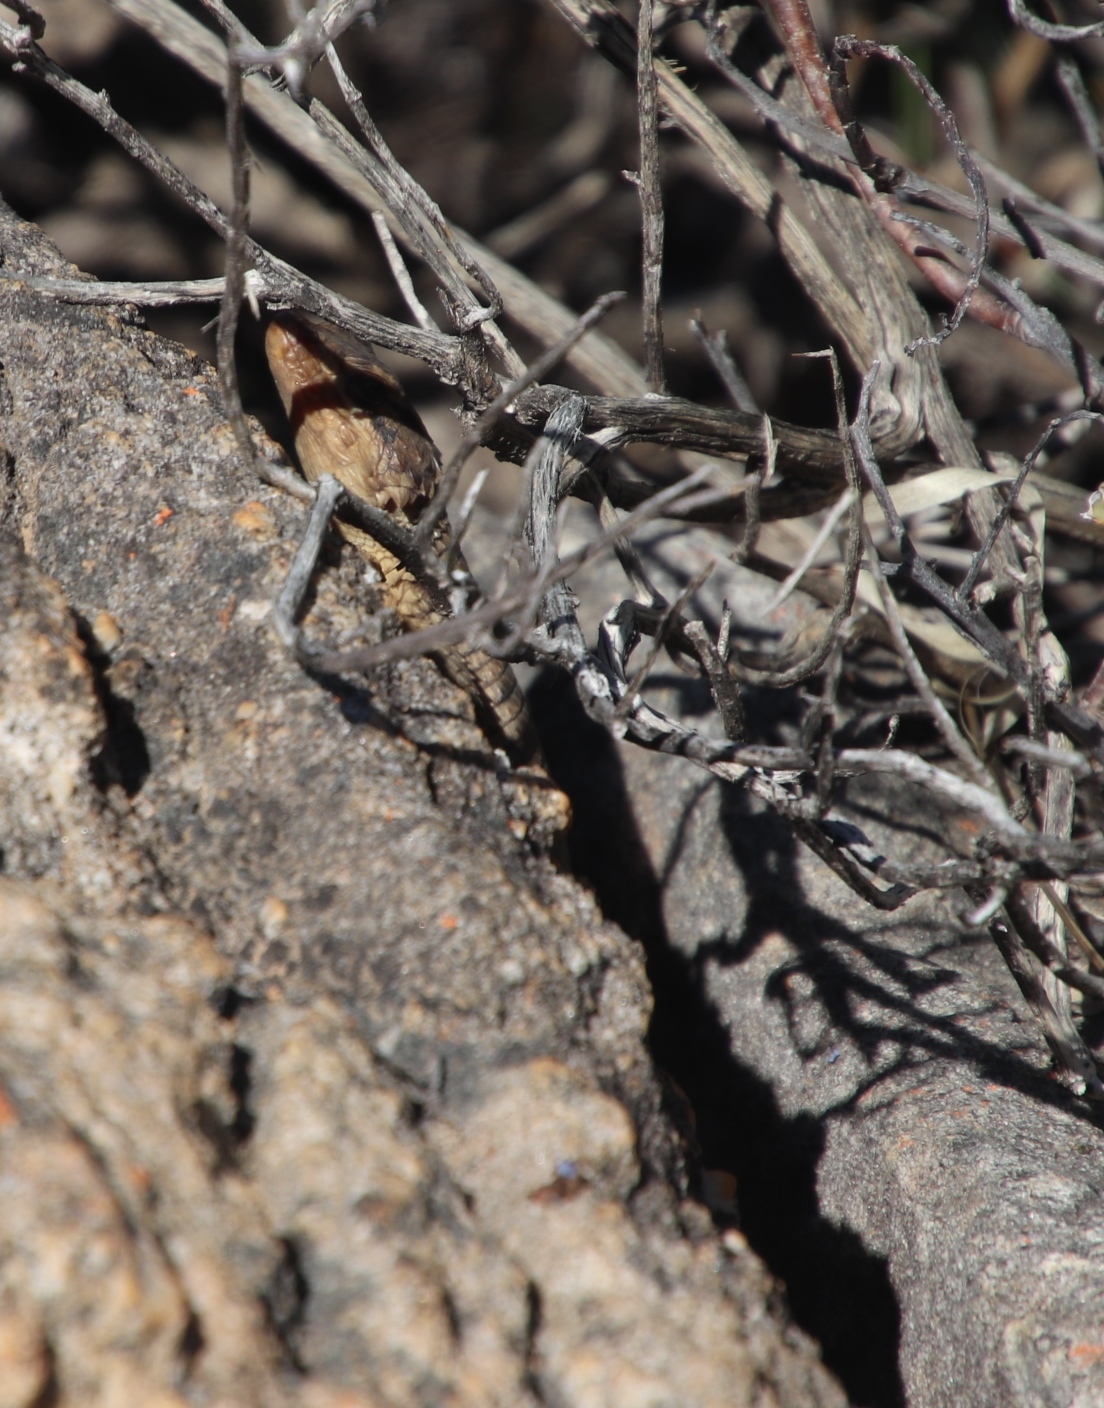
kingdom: Animalia
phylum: Chordata
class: Squamata
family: Cordylidae
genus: Karusasaurus
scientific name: Karusasaurus polyzonus
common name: Karoo girdled lizard
